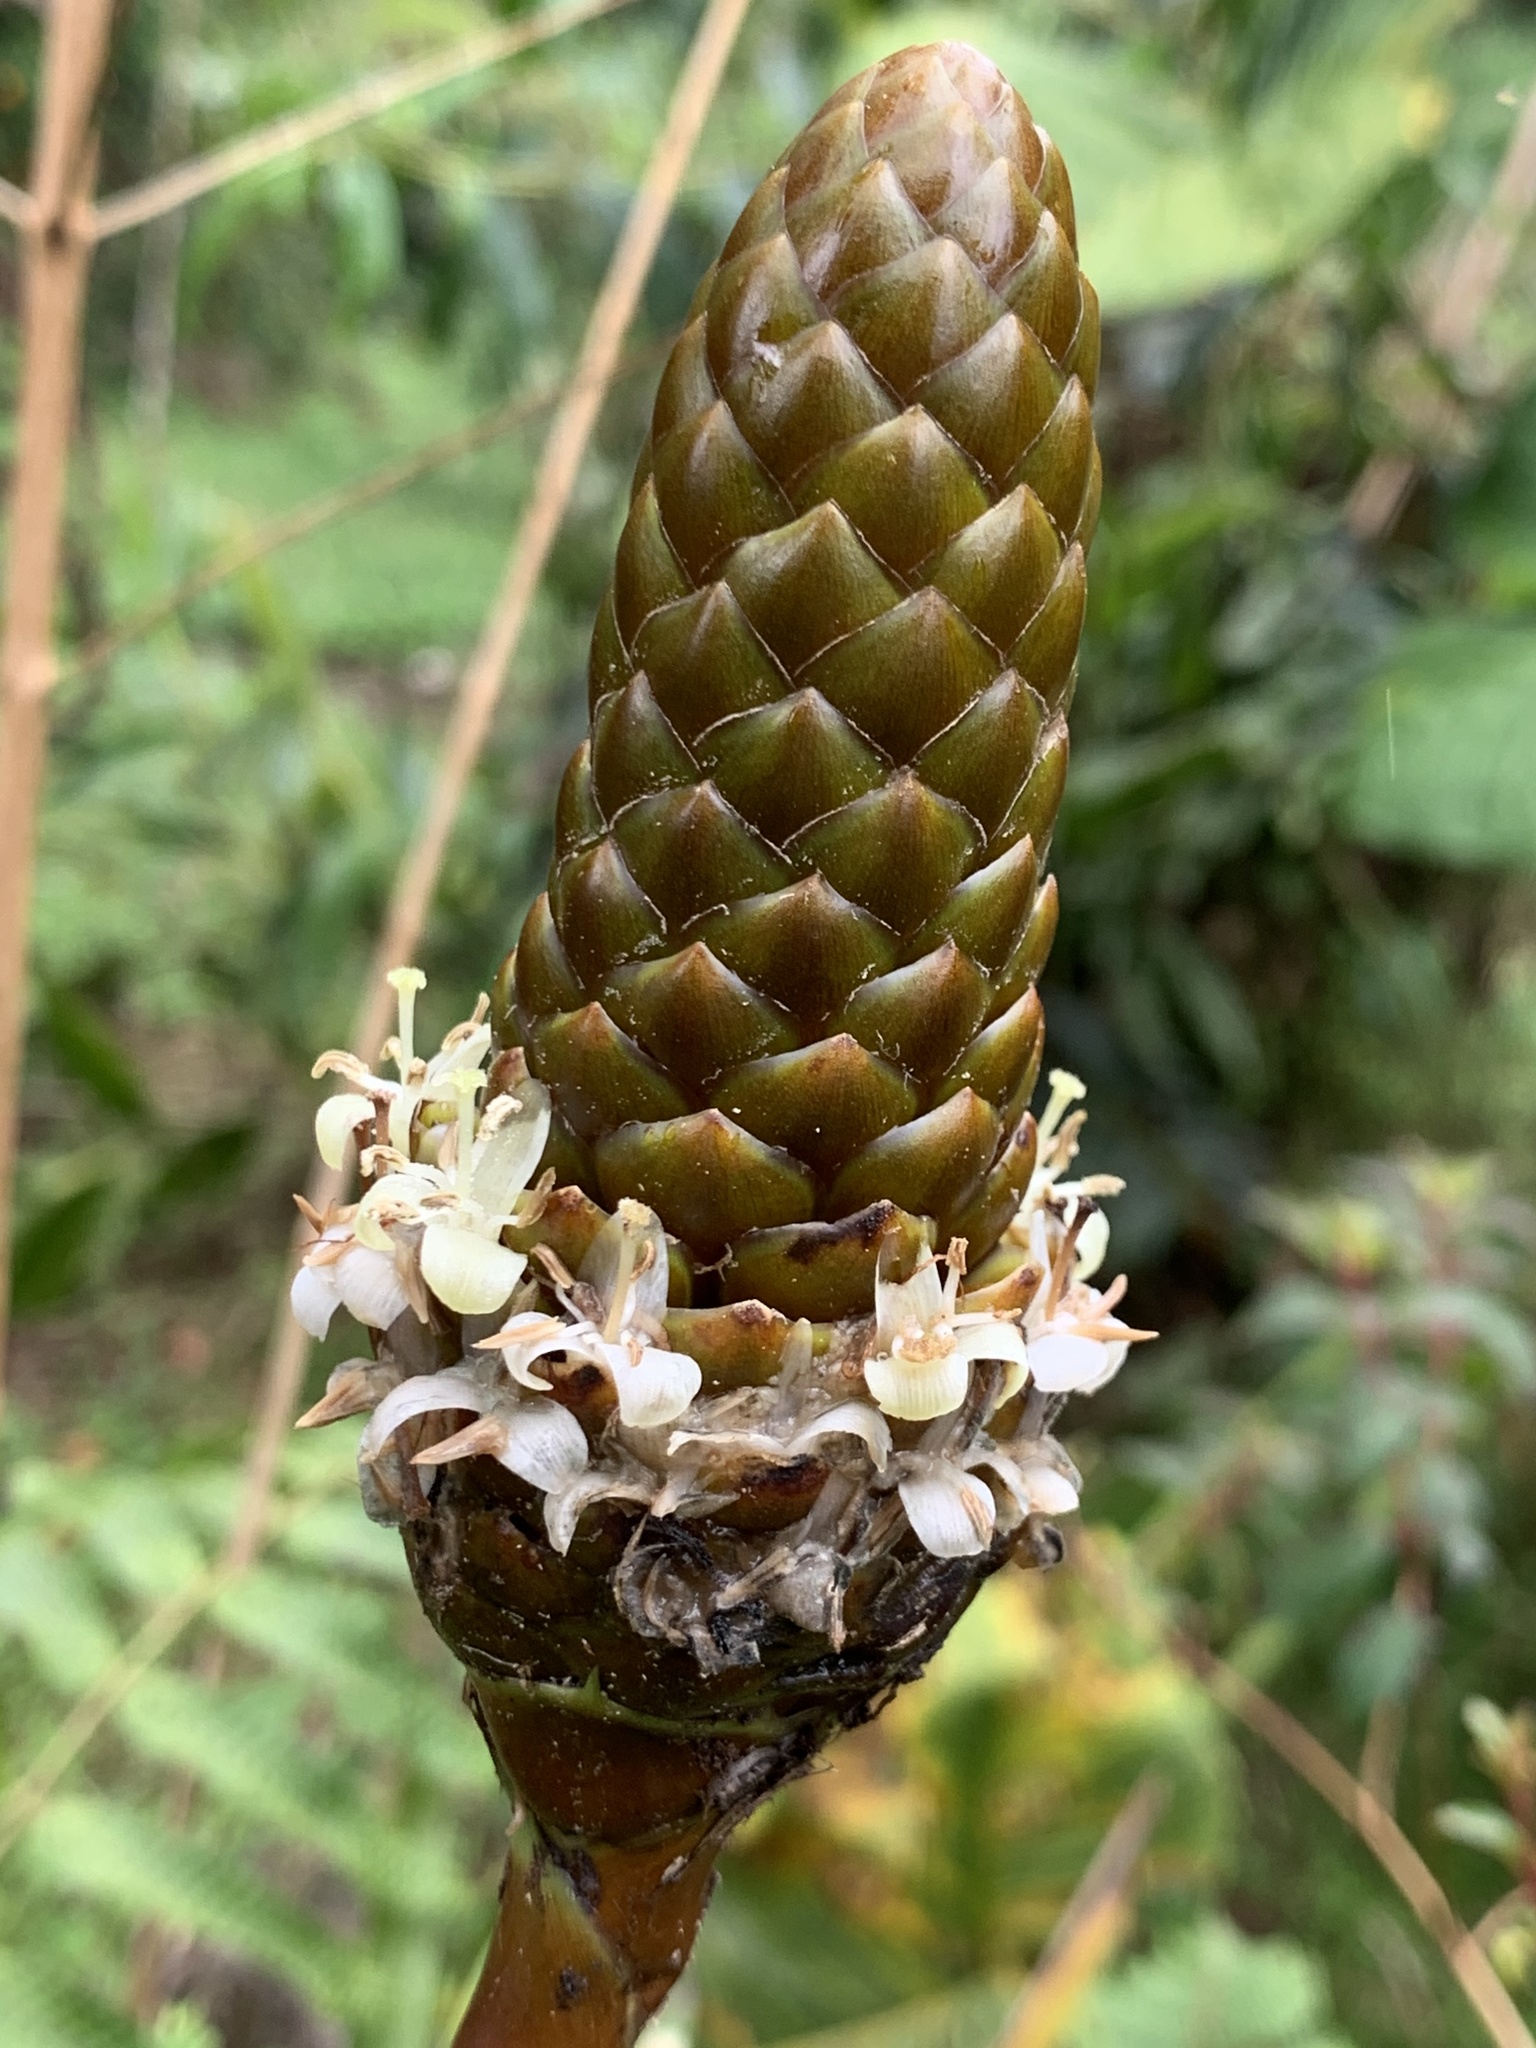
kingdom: Plantae
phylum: Tracheophyta
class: Liliopsida
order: Poales
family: Bromeliaceae
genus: Guzmania
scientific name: Guzmania coriostachya
